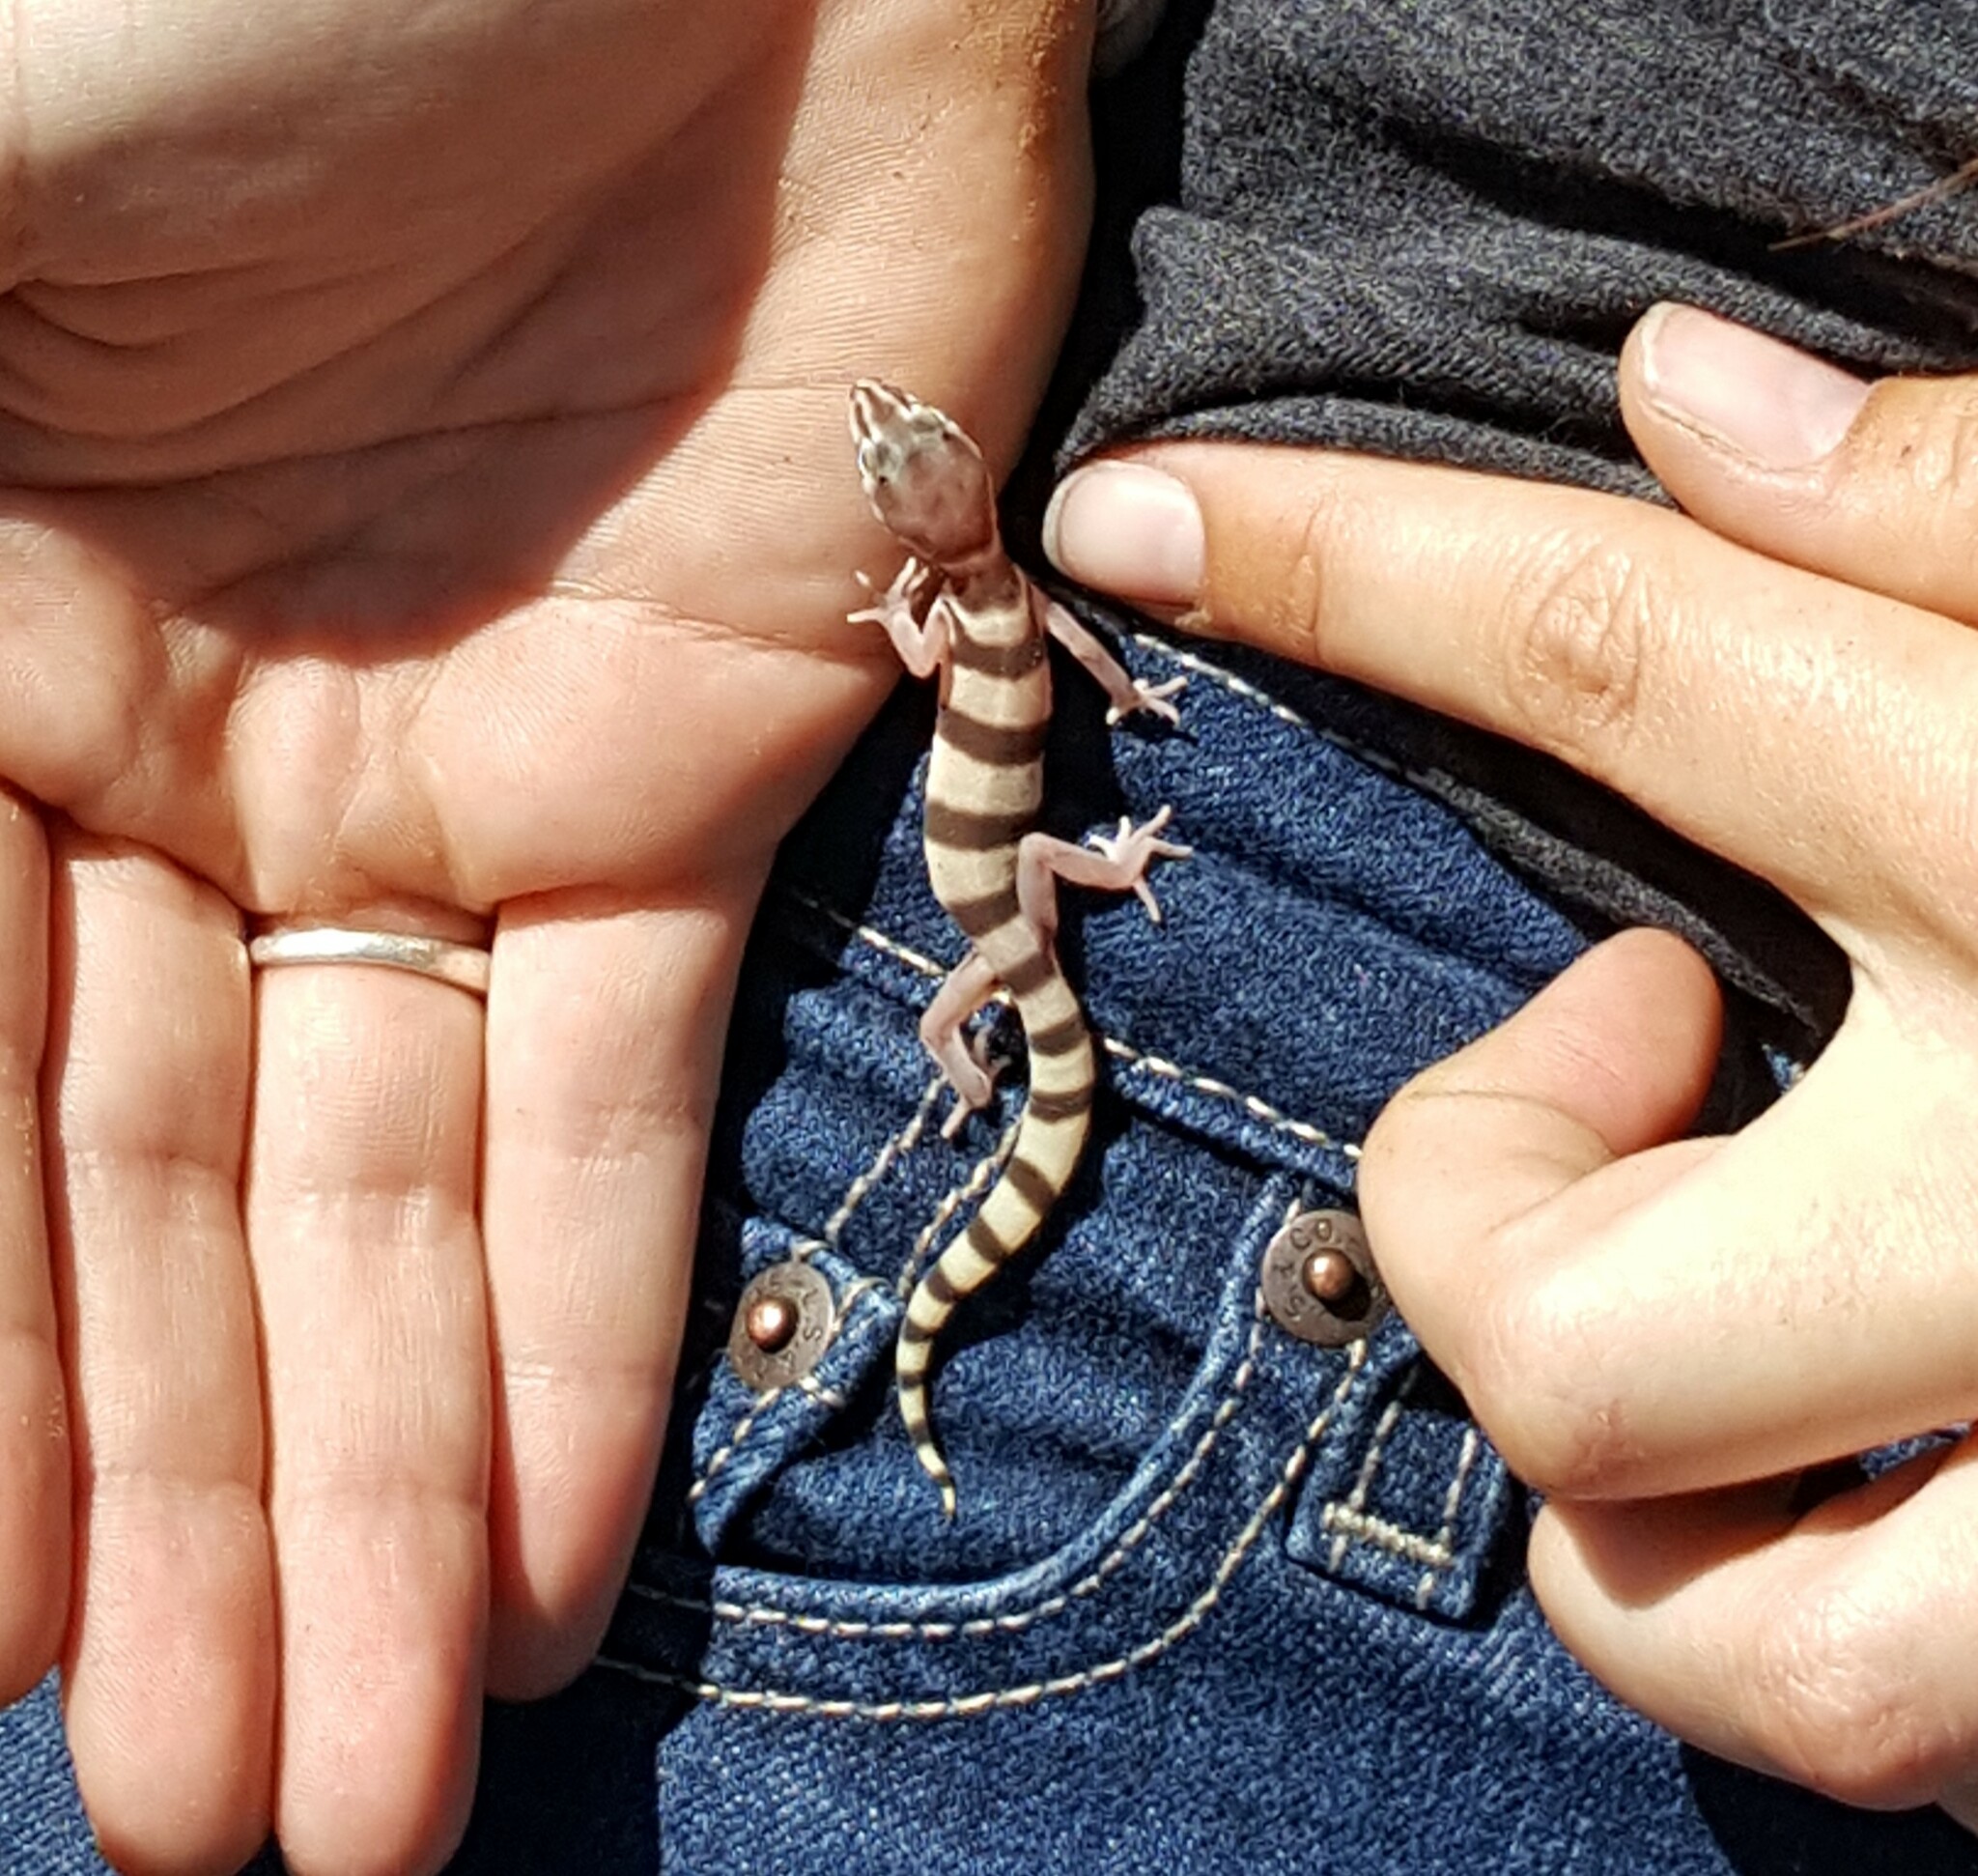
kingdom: Animalia
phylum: Chordata
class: Squamata
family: Eublepharidae
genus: Coleonyx
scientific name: Coleonyx variegatus
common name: Western banded gecko
